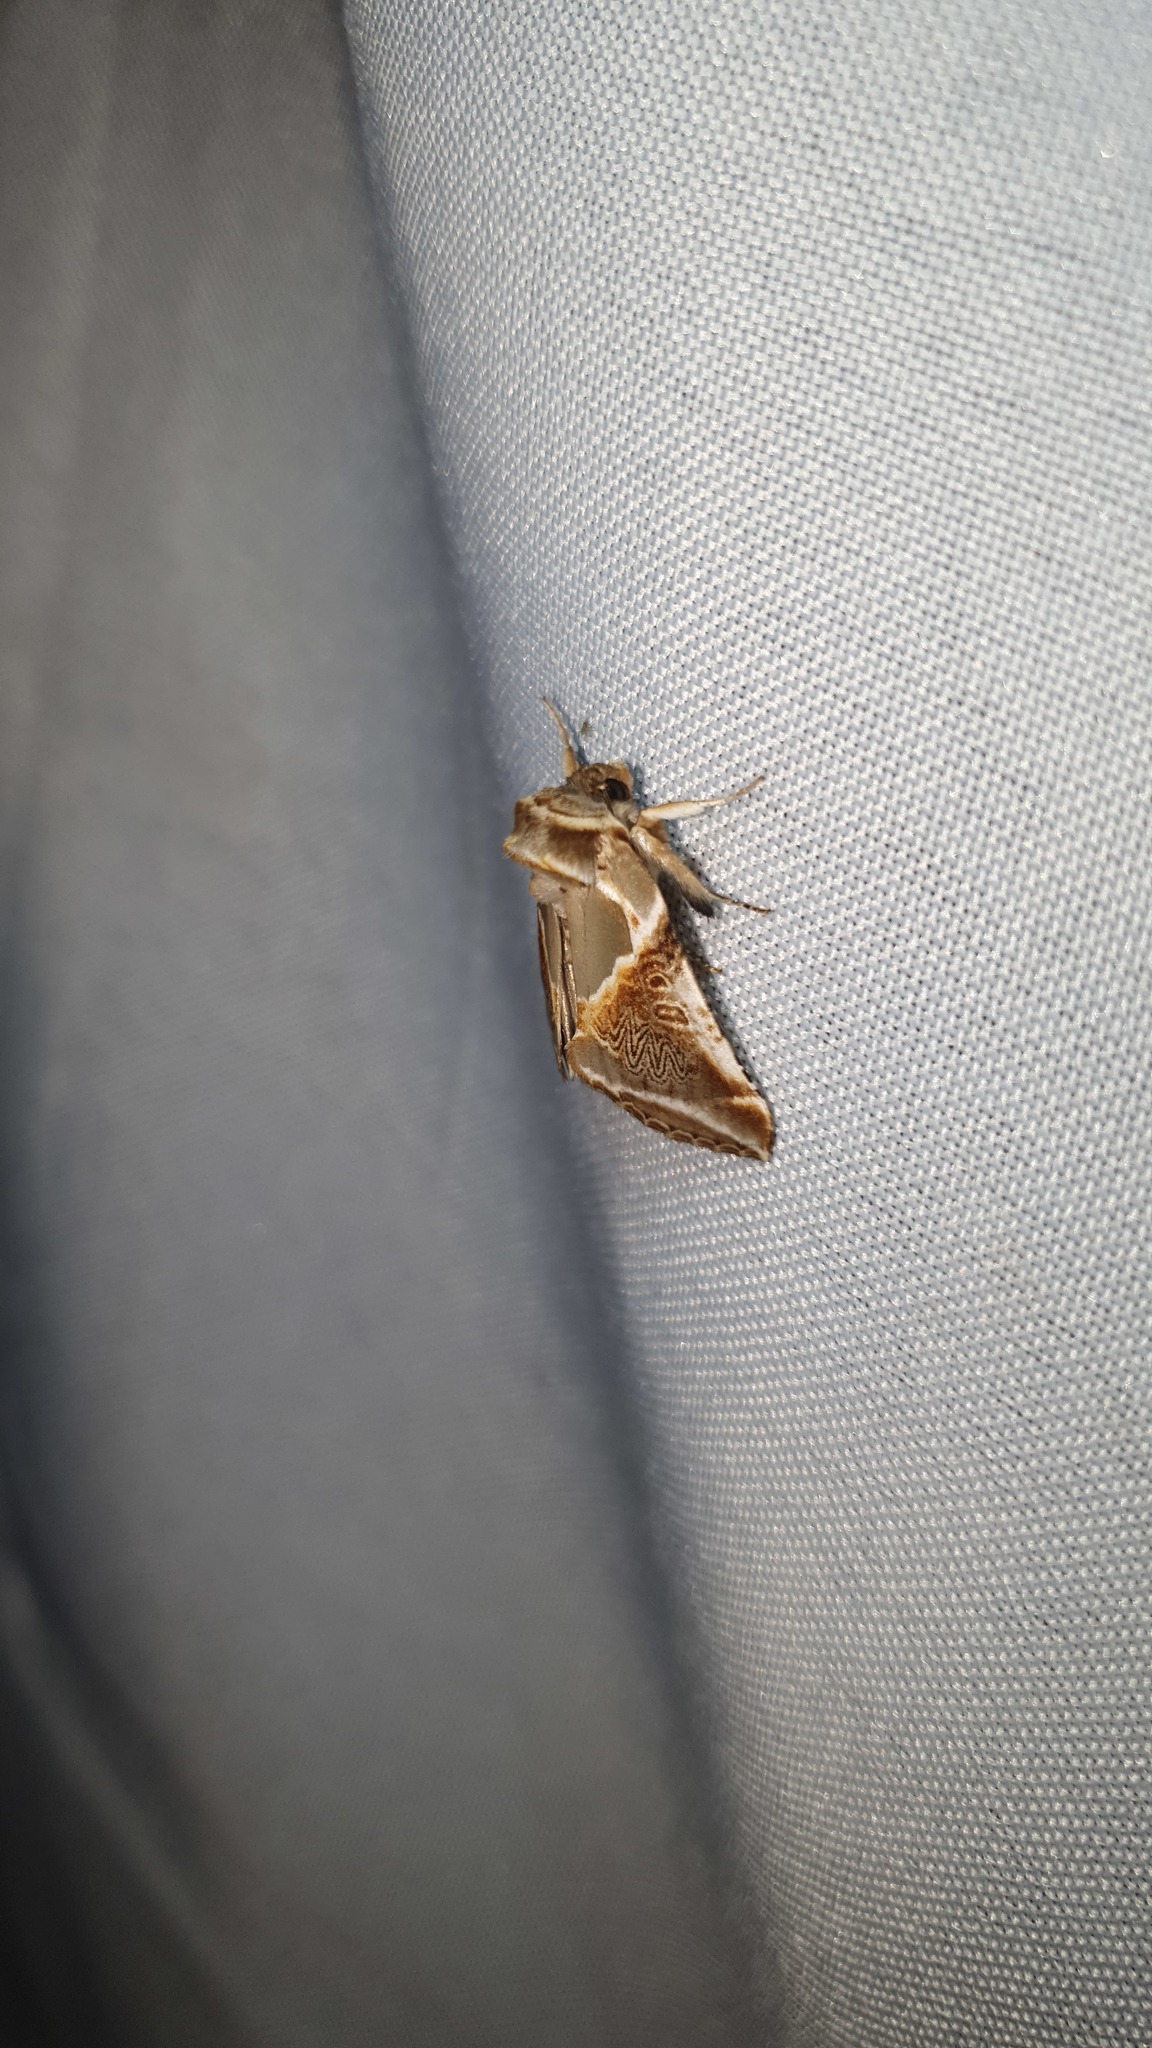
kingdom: Animalia
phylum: Arthropoda
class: Insecta
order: Lepidoptera
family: Drepanidae
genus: Habrosyne
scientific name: Habrosyne pyritoides
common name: Buff arches
